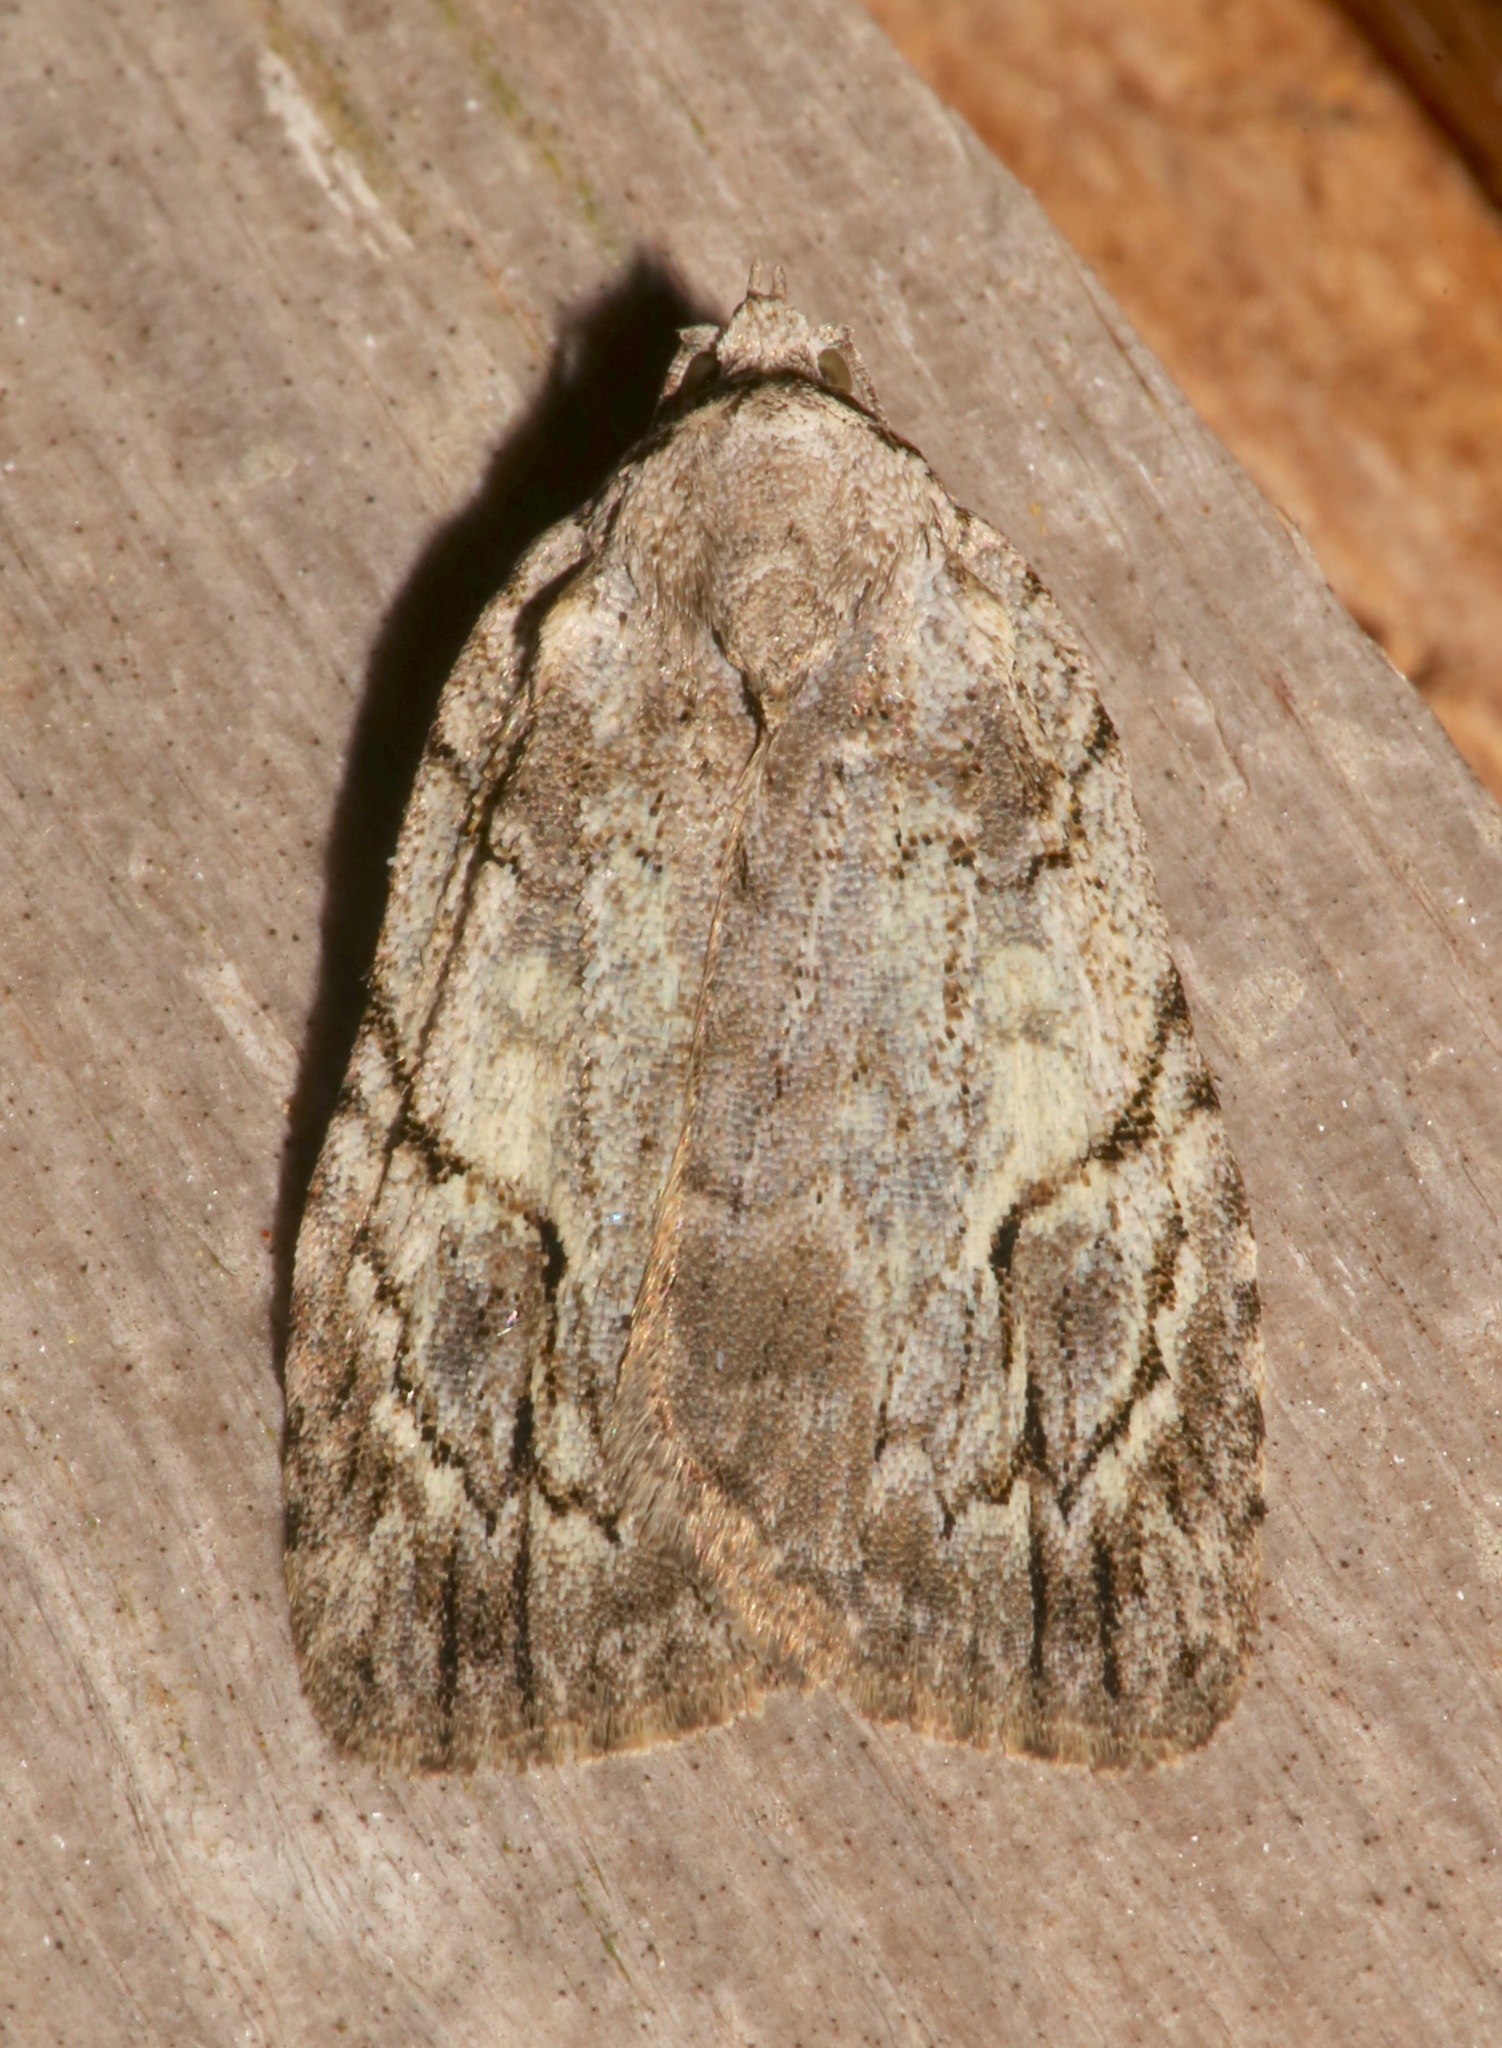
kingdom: Animalia
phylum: Arthropoda
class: Insecta
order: Lepidoptera
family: Noctuidae
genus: Balsa
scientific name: Balsa labecula
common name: White-blotched balsa moth
